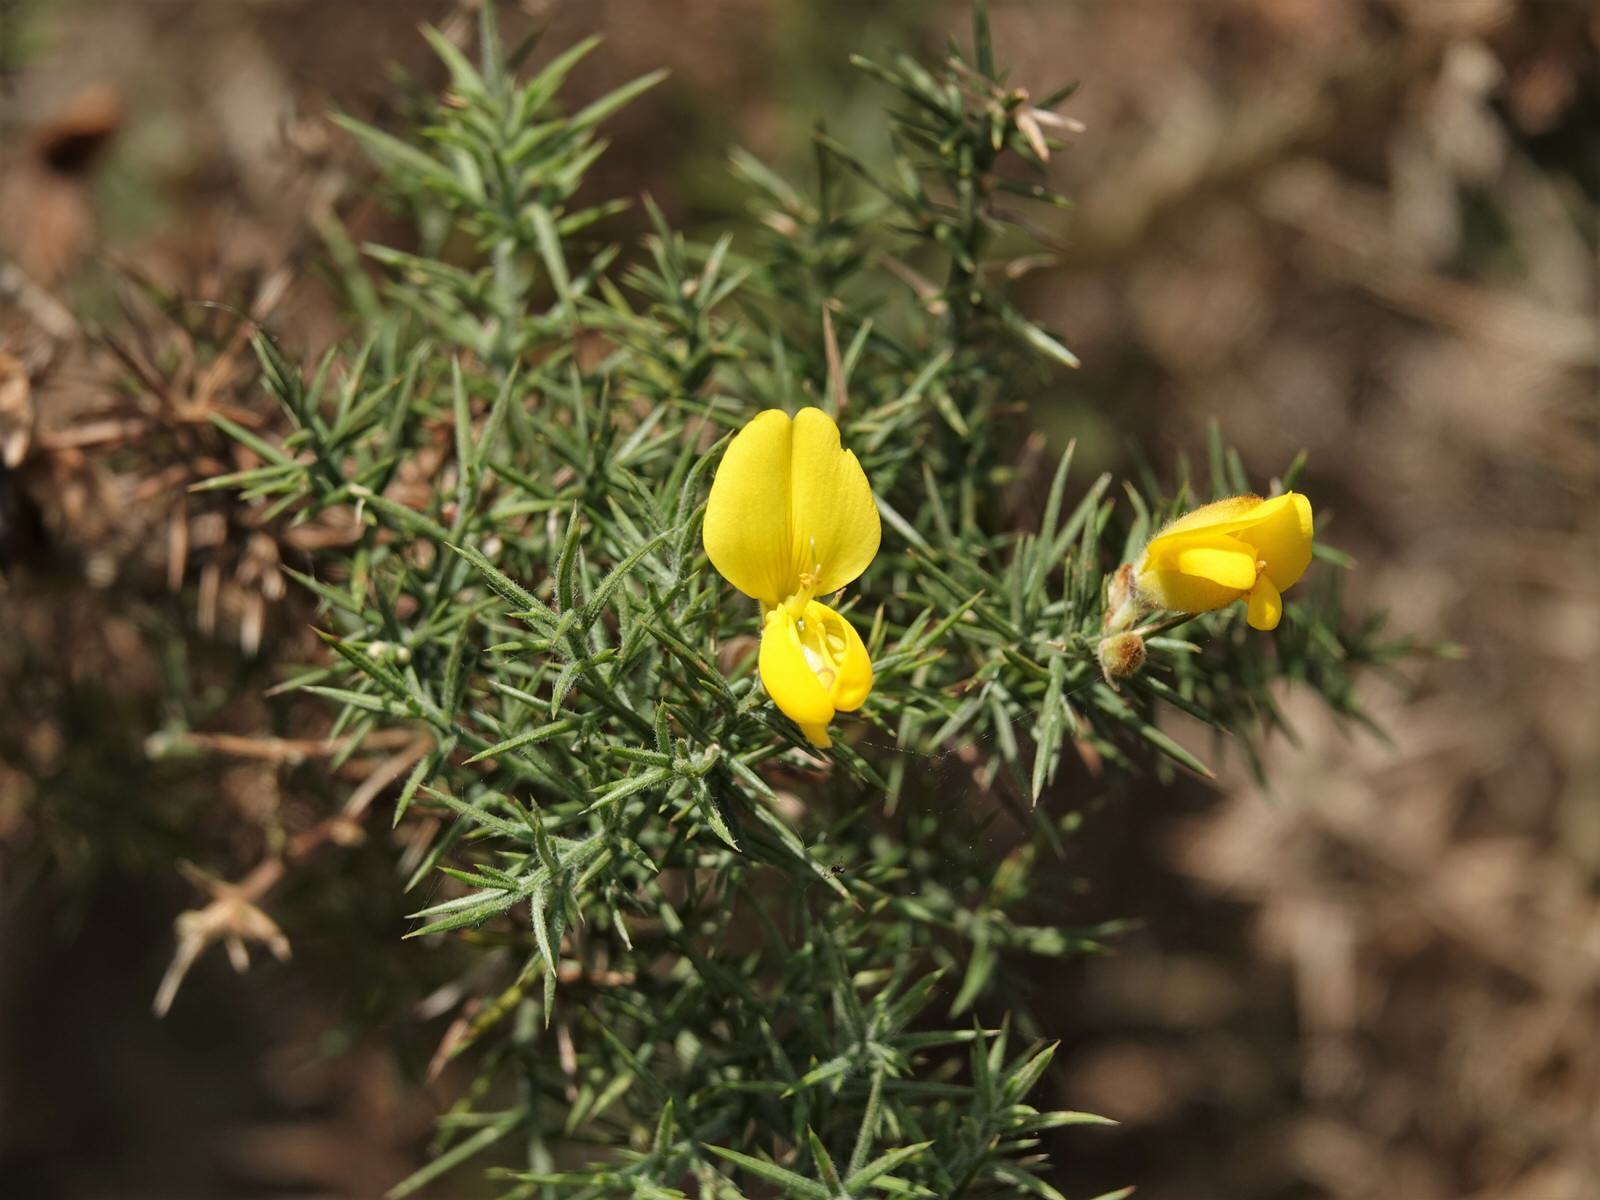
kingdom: Plantae
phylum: Tracheophyta
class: Magnoliopsida
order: Fabales
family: Fabaceae
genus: Ulex
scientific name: Ulex europaeus
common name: Common gorse
